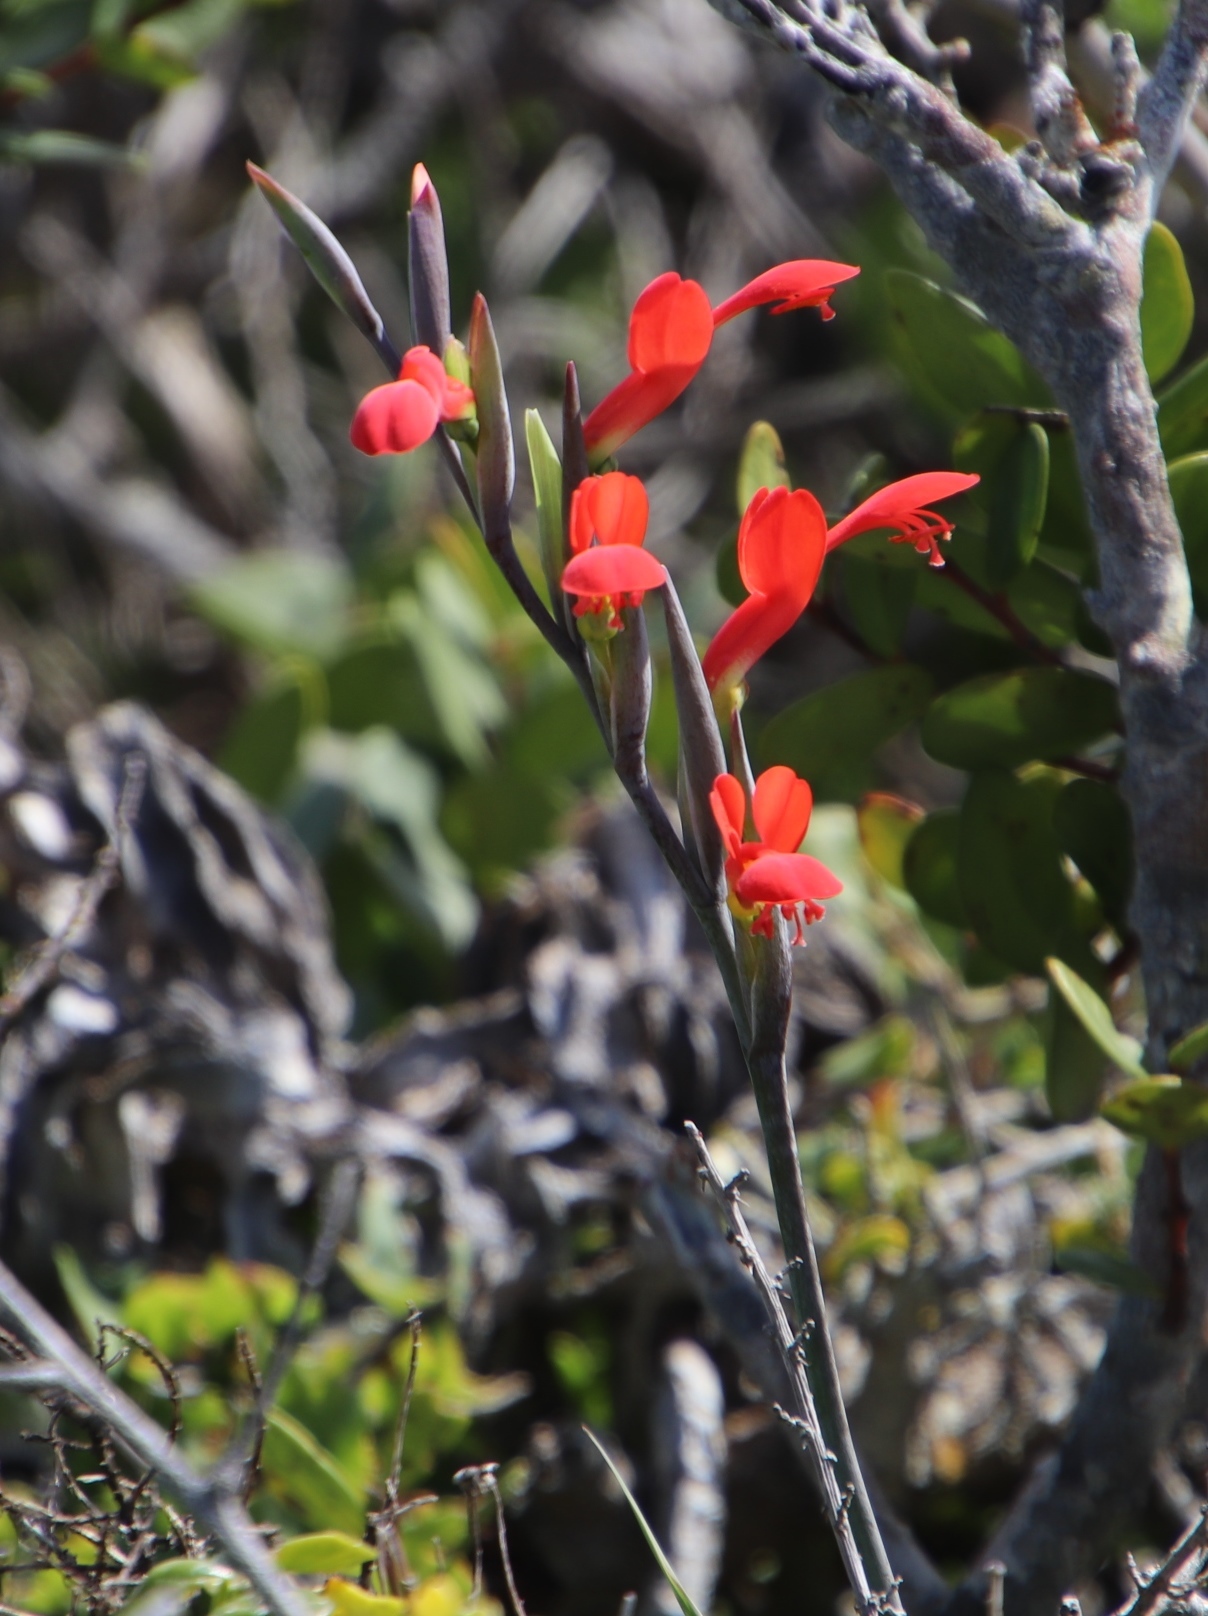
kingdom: Plantae
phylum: Tracheophyta
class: Liliopsida
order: Asparagales
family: Iridaceae
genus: Gladiolus
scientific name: Gladiolus cunonius
